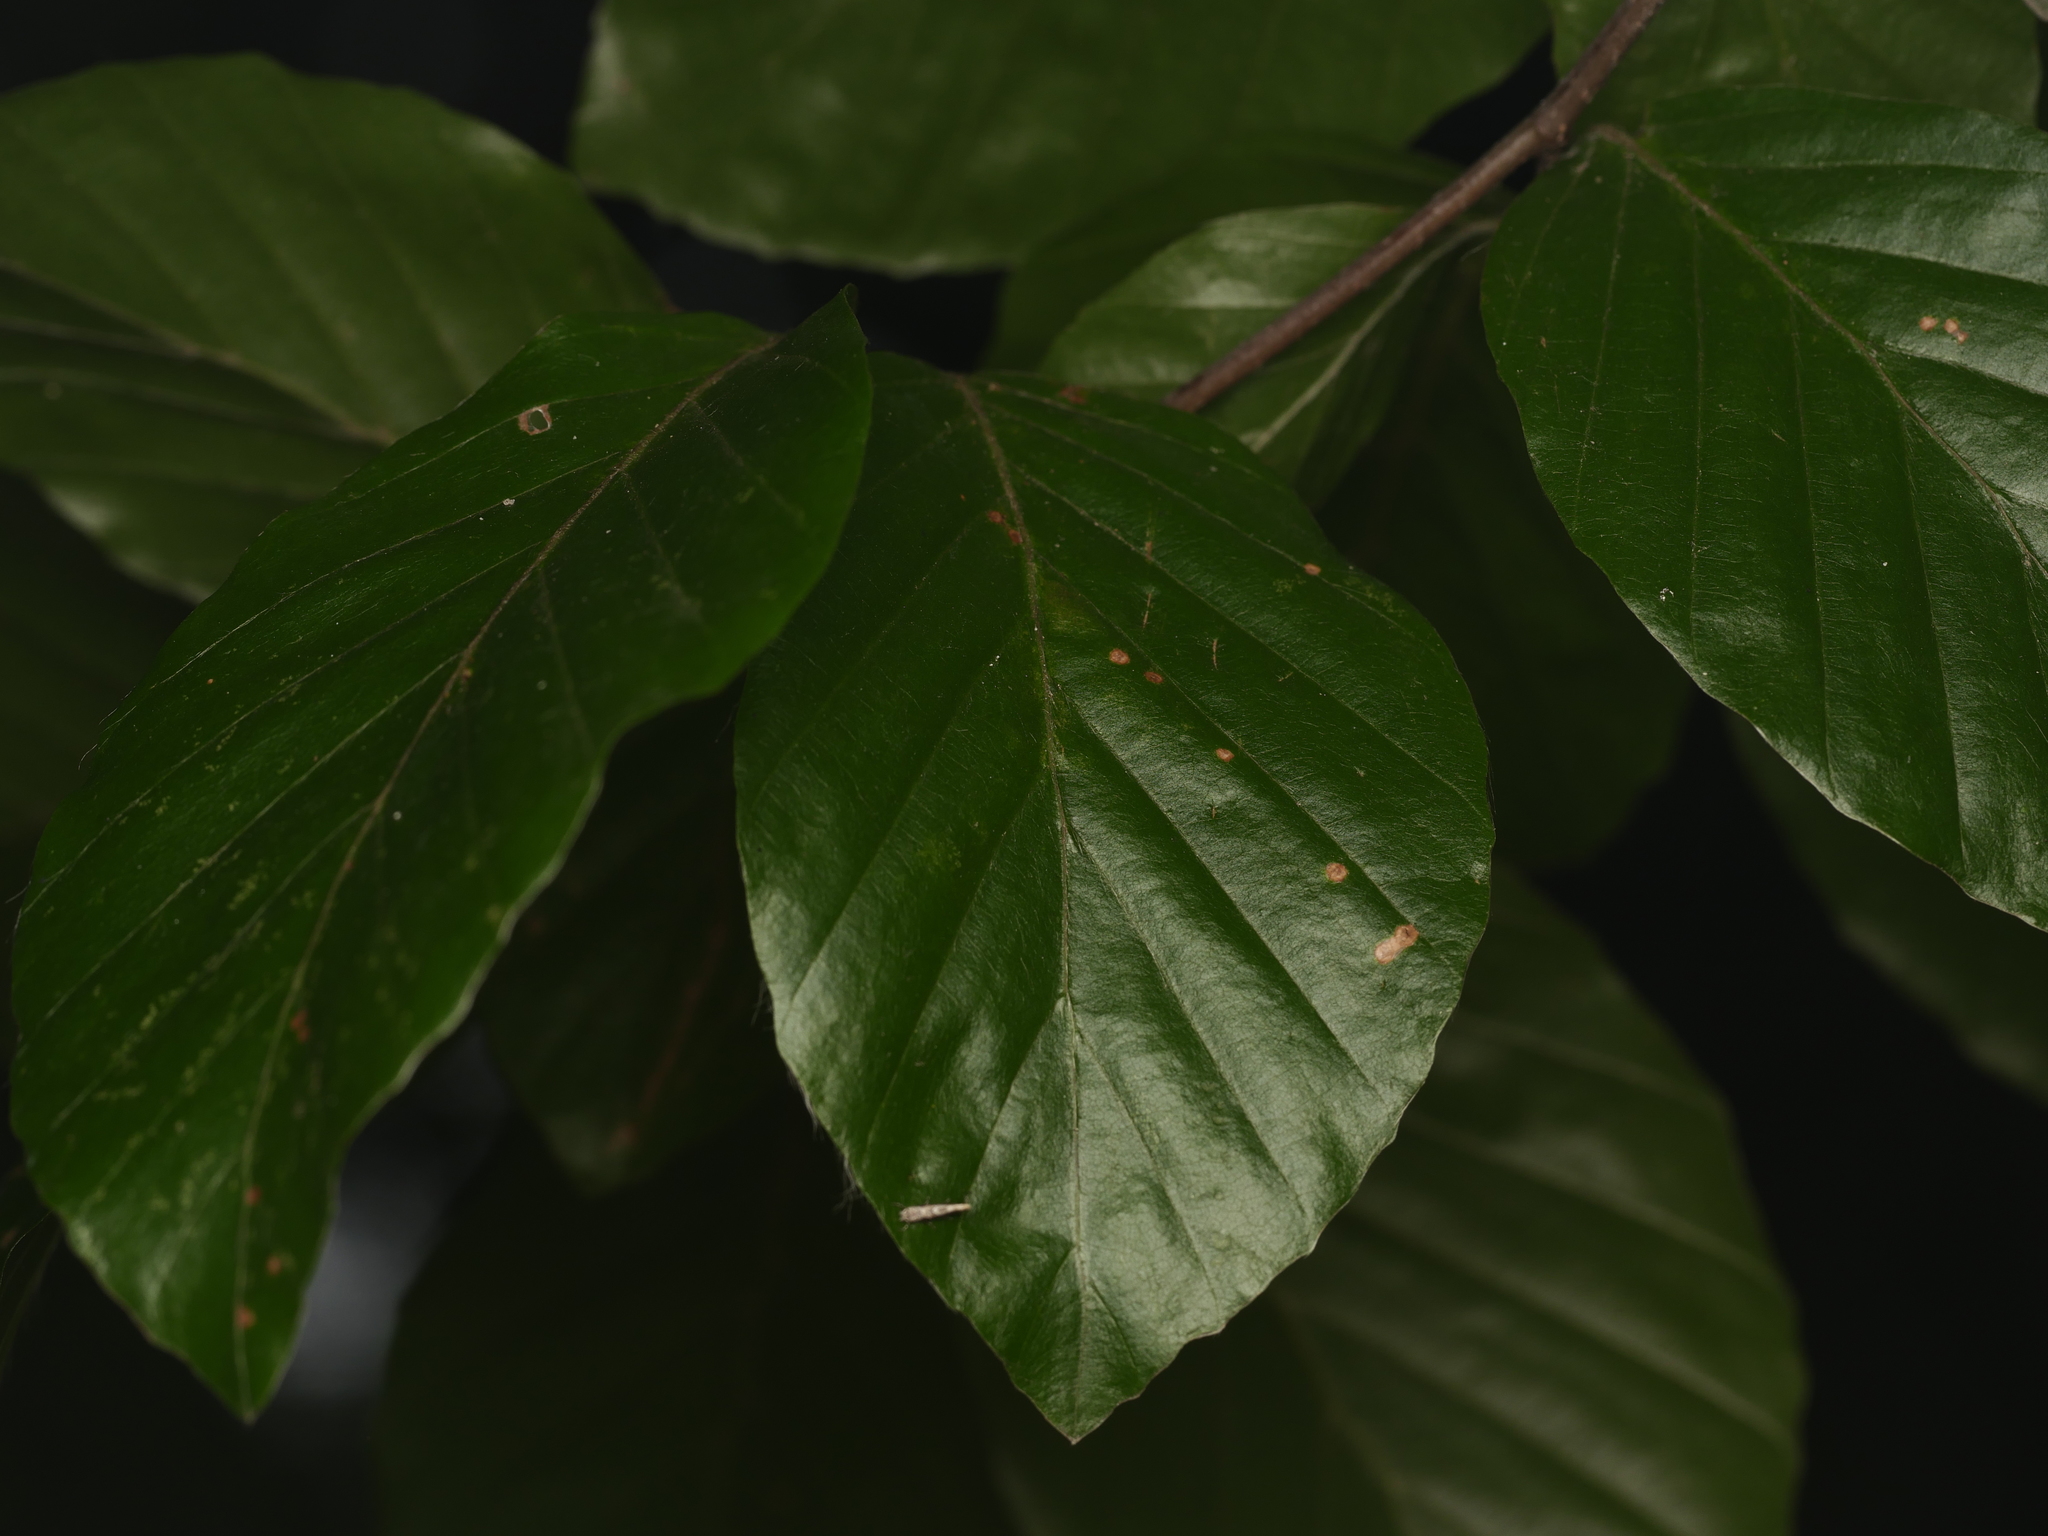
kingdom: Plantae
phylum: Tracheophyta
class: Magnoliopsida
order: Fagales
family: Fagaceae
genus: Fagus
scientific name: Fagus sylvatica
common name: Beech
